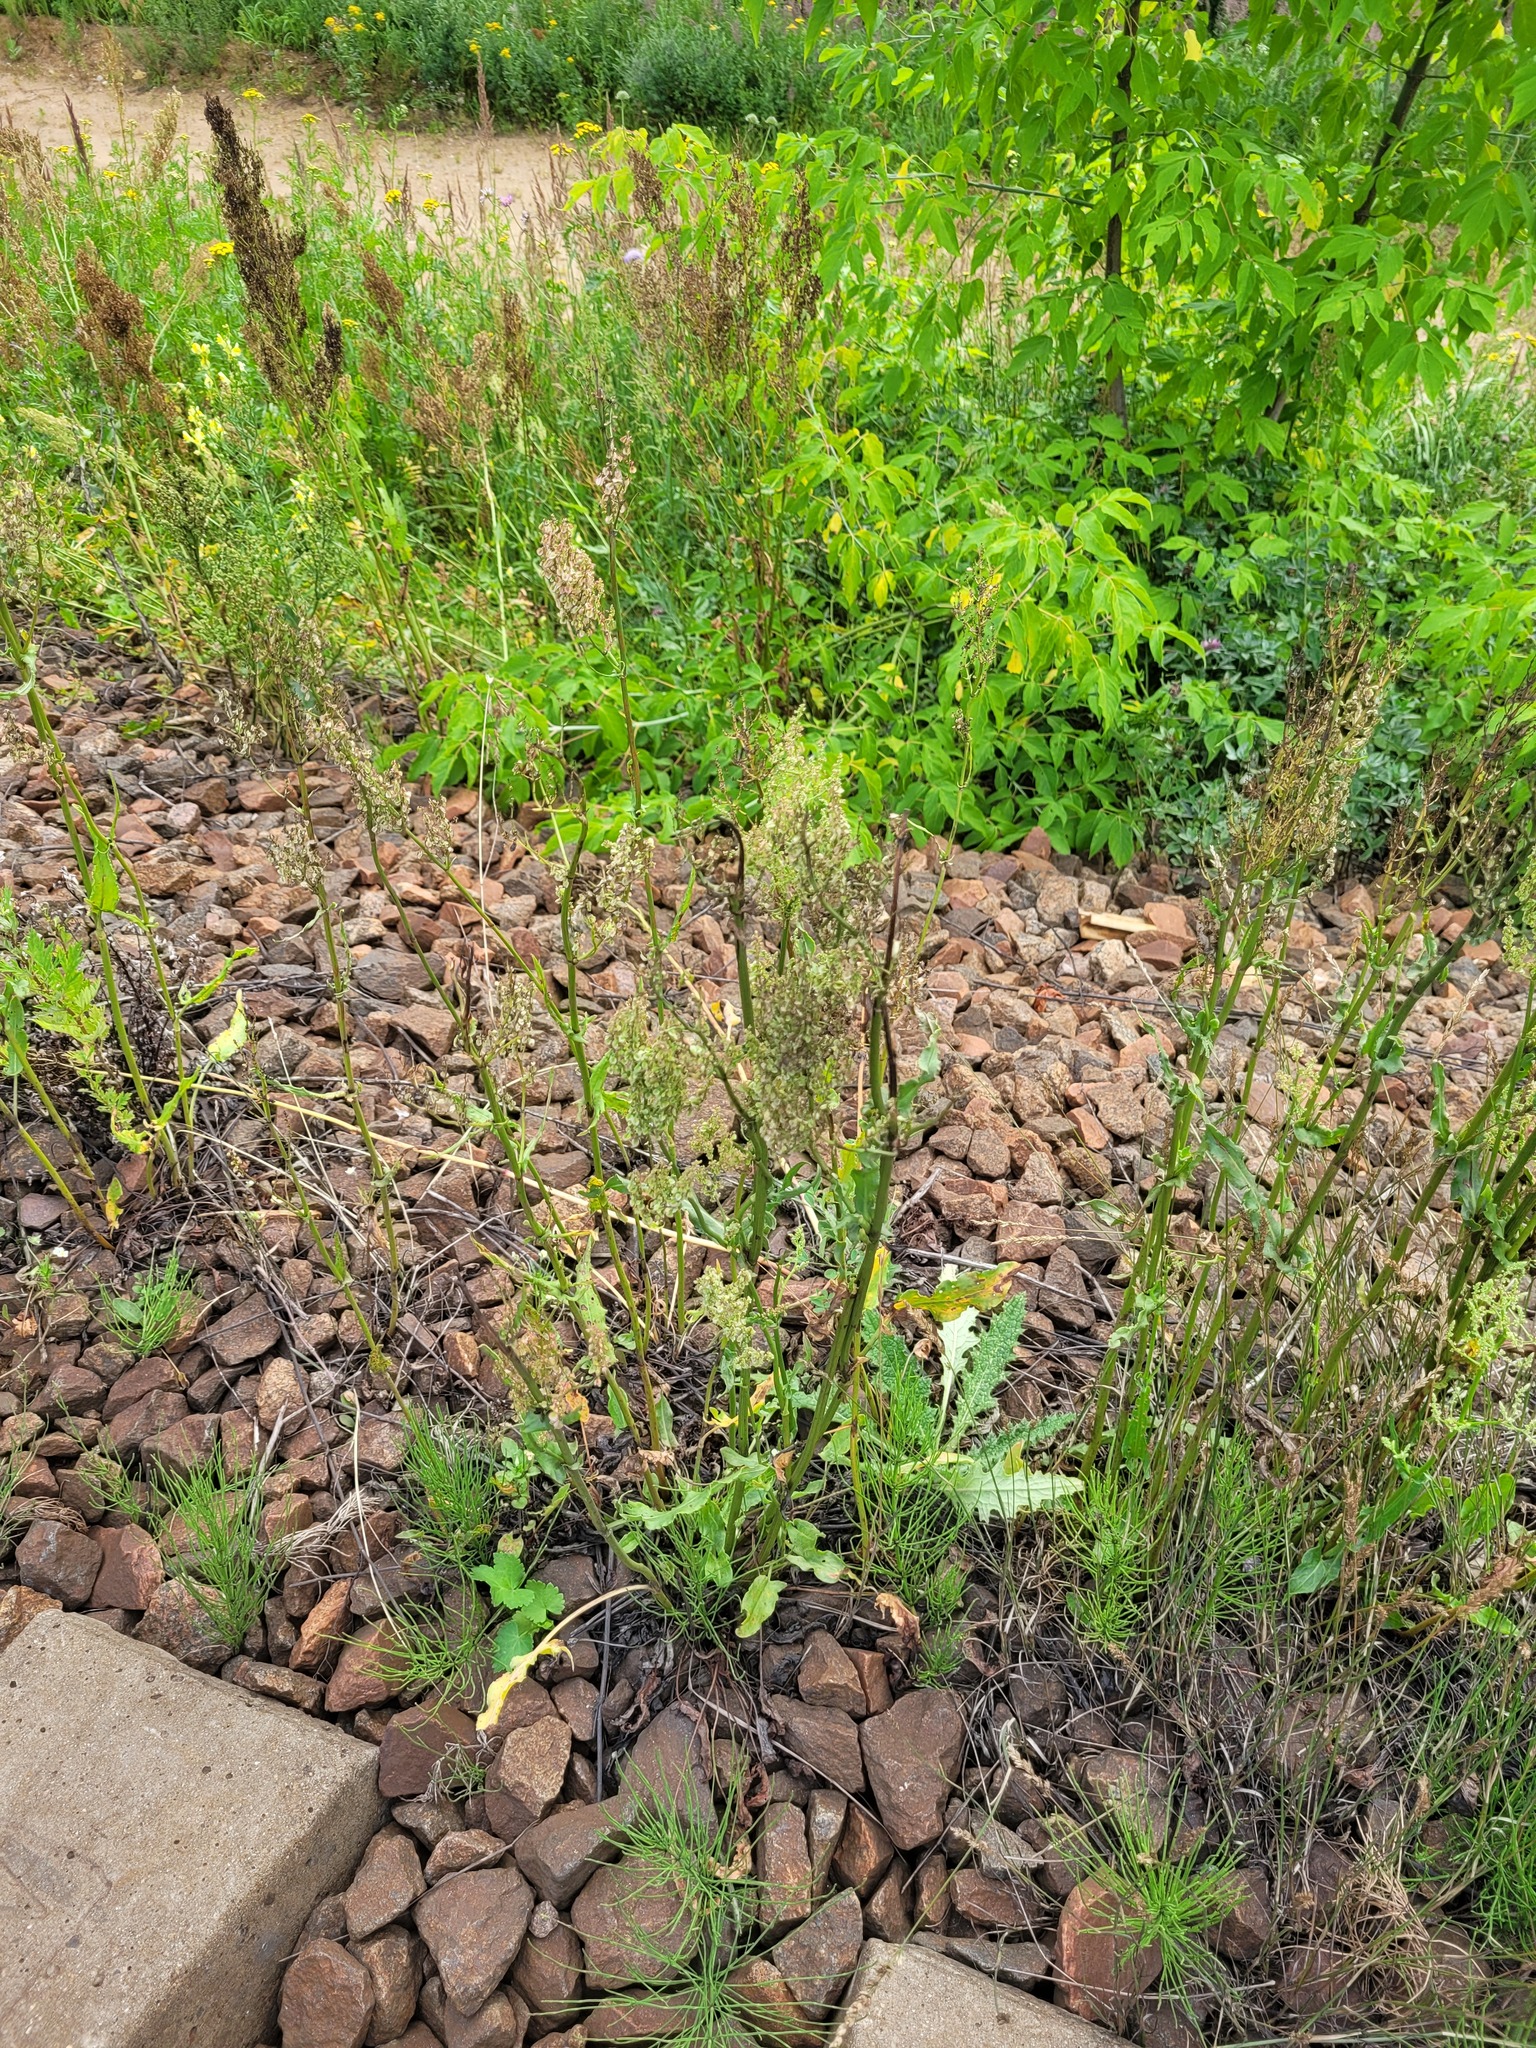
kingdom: Plantae
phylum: Tracheophyta
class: Magnoliopsida
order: Caryophyllales
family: Polygonaceae
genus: Rumex
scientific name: Rumex thyrsiflorus
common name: Garden sorrel
